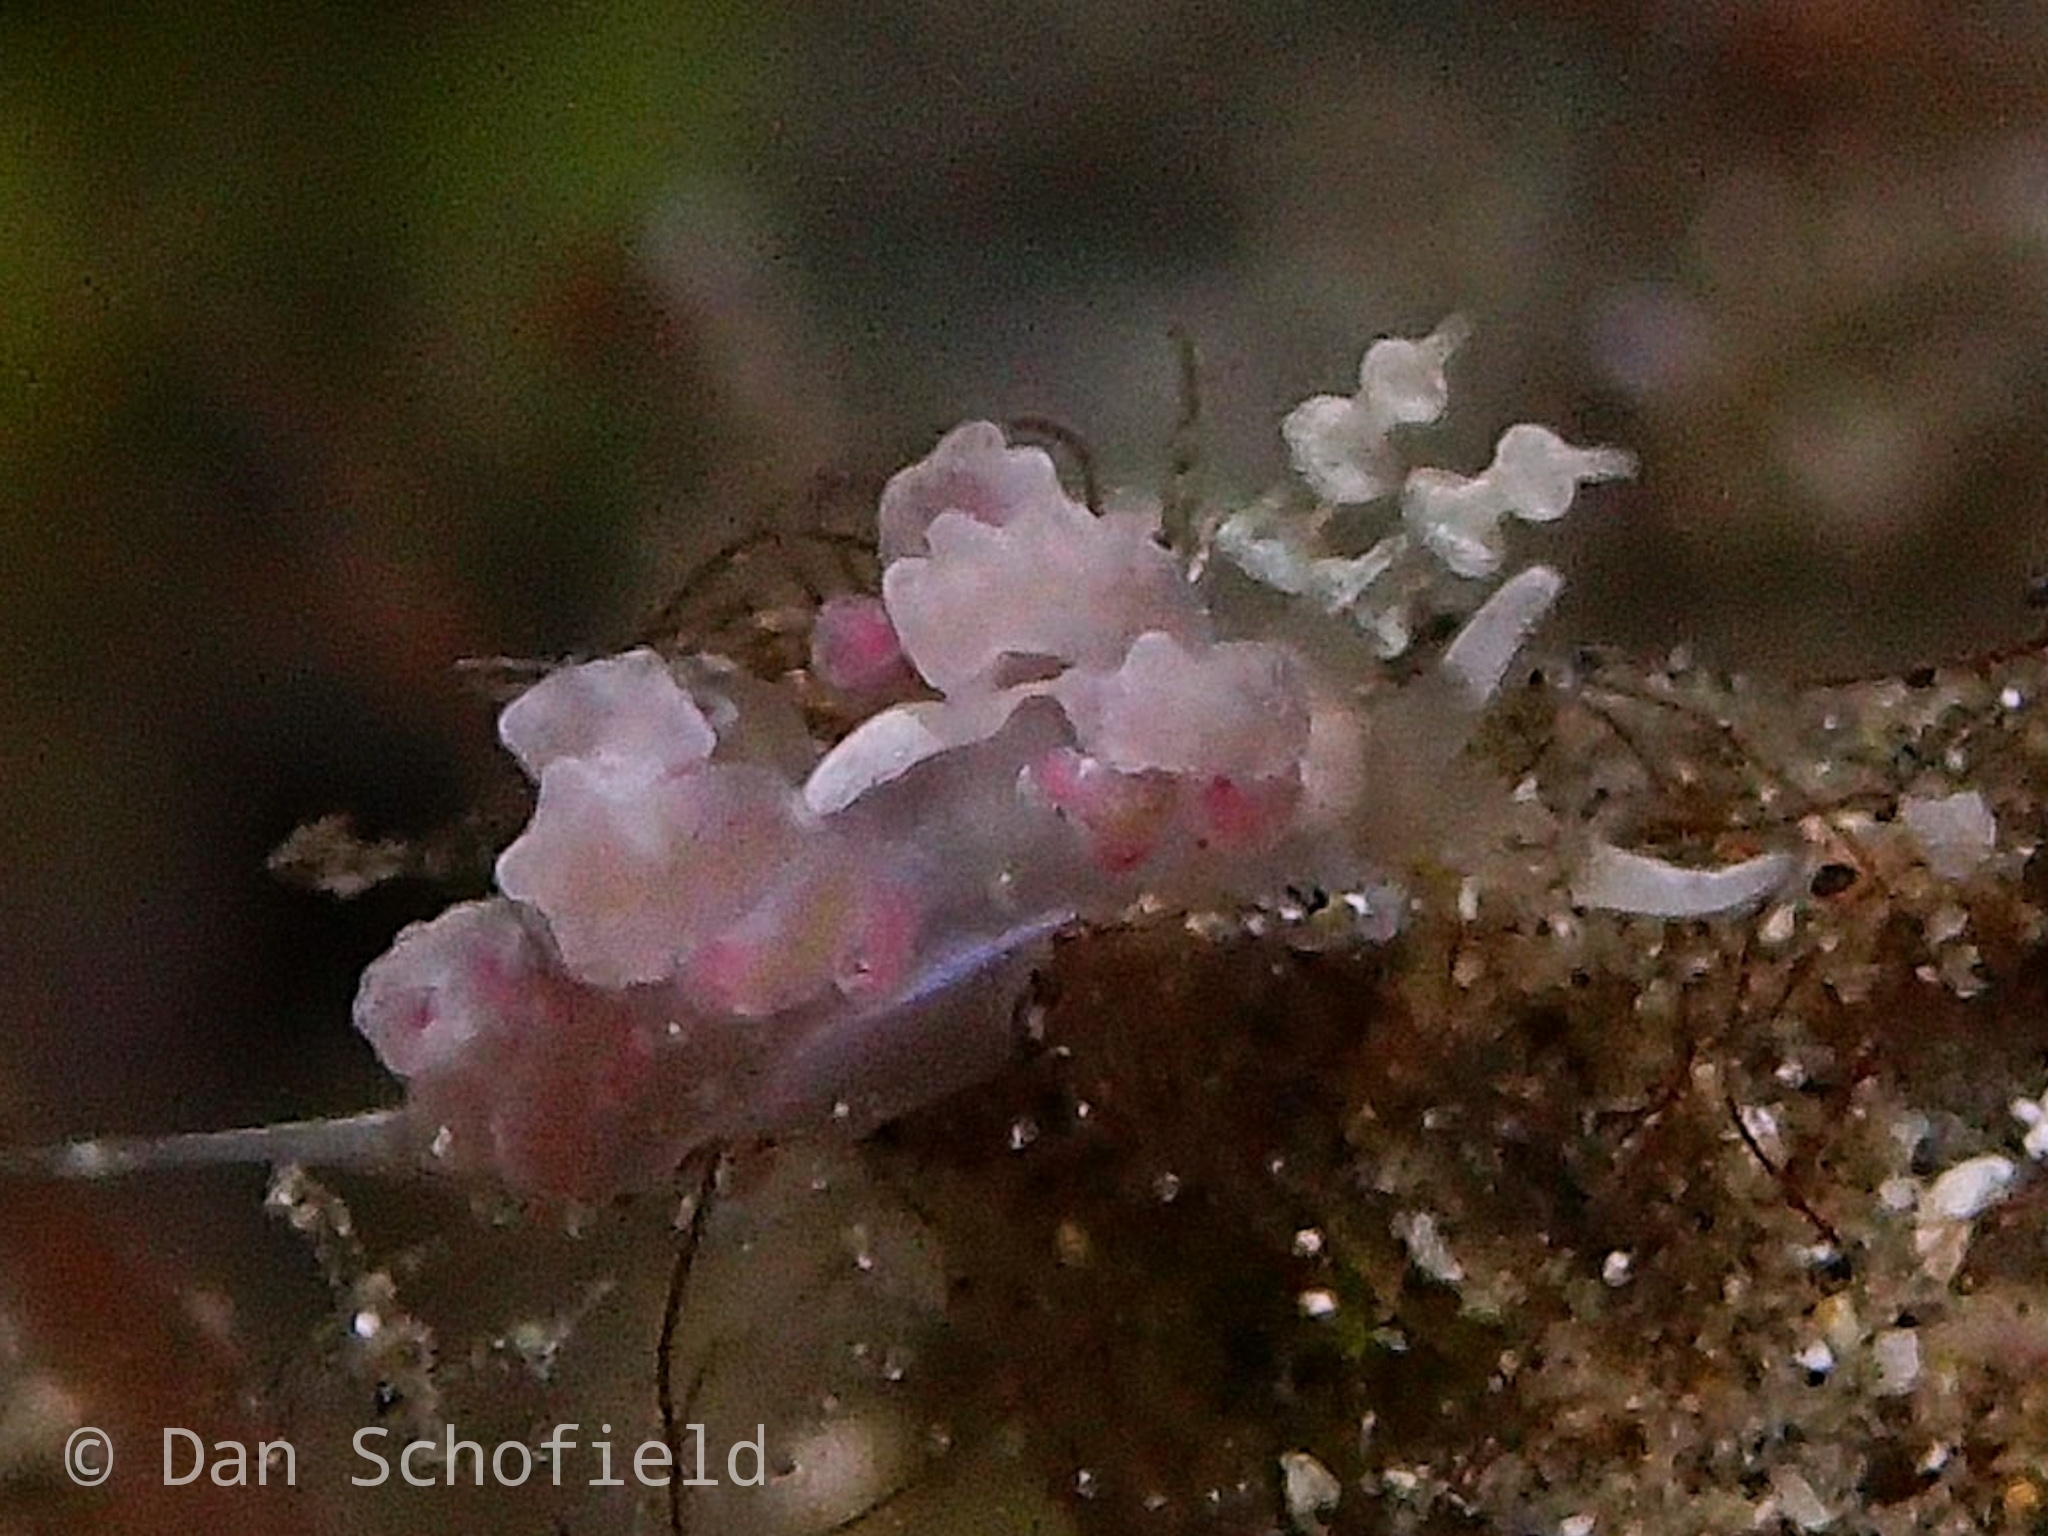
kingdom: Animalia
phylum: Mollusca
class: Gastropoda
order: Nudibranchia
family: Facelinidae
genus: Favorinus
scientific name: Favorinus japonicus
